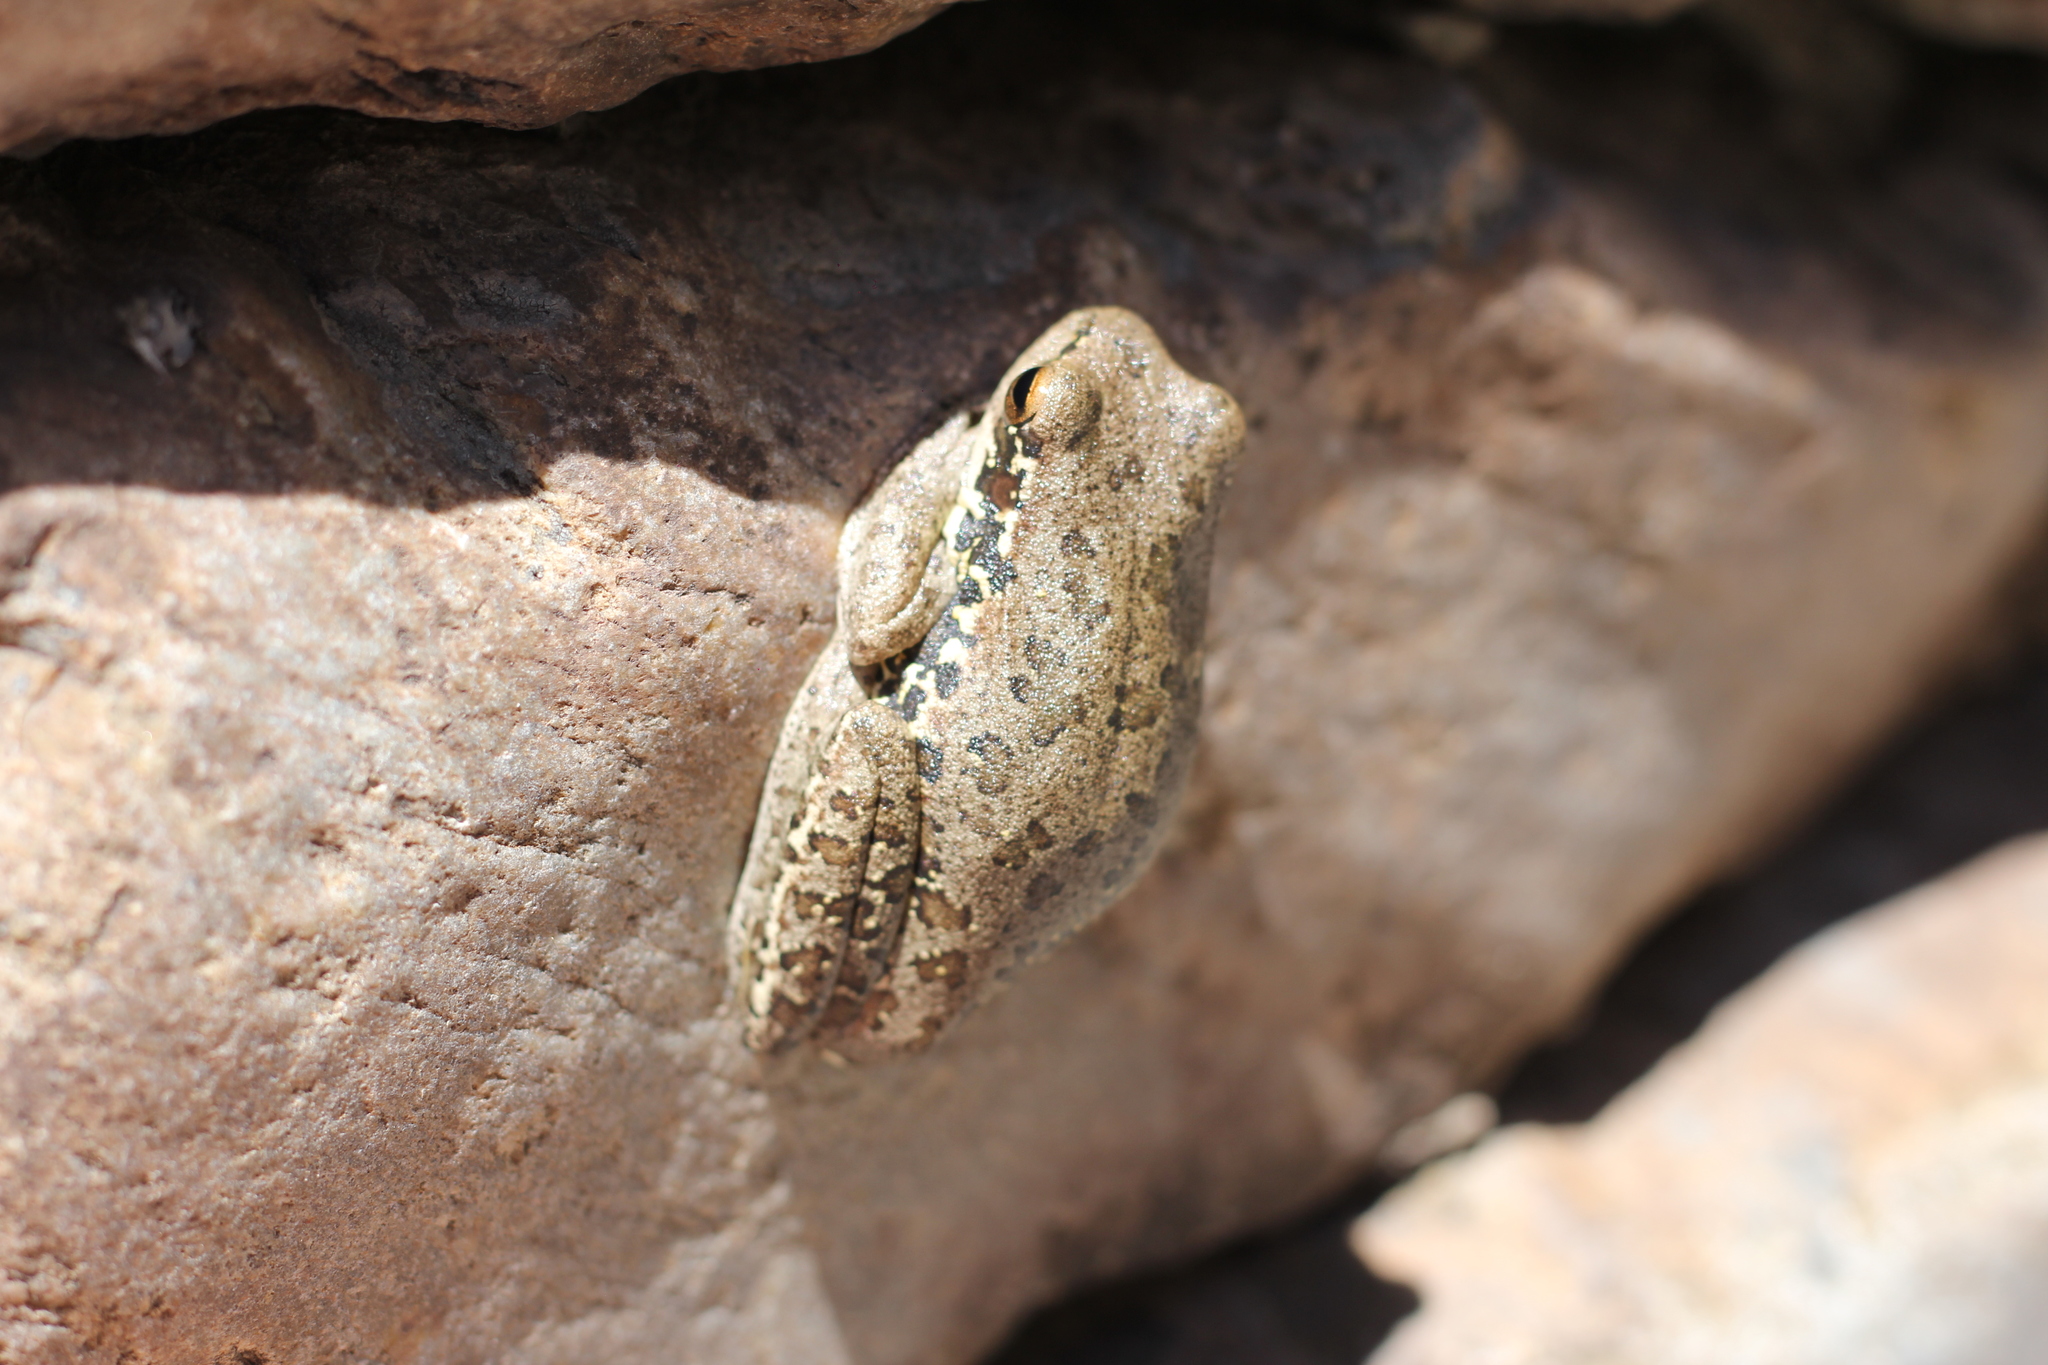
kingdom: Animalia
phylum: Chordata
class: Amphibia
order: Anura
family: Hylidae
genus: Boana
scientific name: Boana pulchella
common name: Montevideo treefrog
